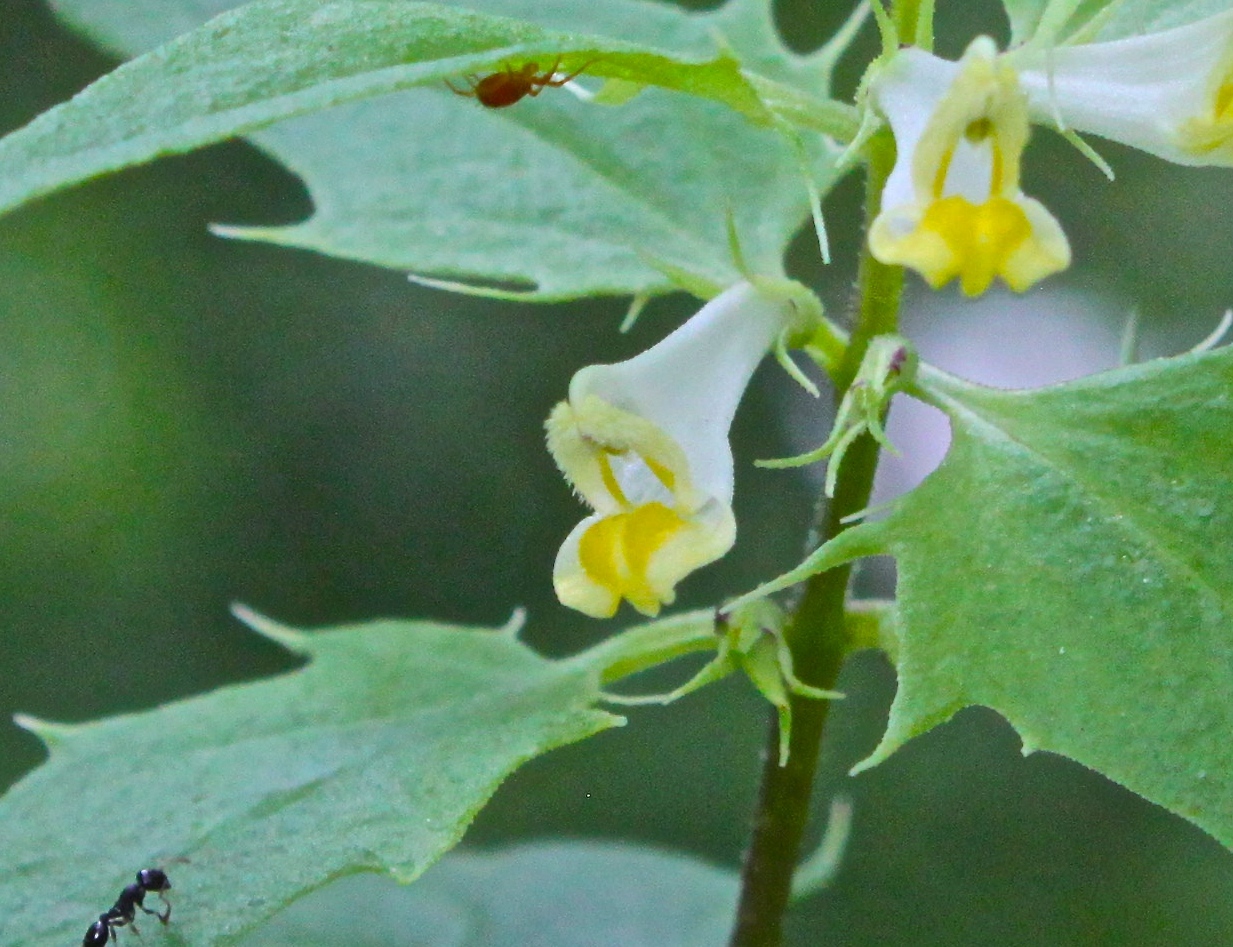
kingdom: Plantae
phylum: Tracheophyta
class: Magnoliopsida
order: Lamiales
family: Orobanchaceae
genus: Melampyrum
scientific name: Melampyrum lineare
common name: American cow-wheat
